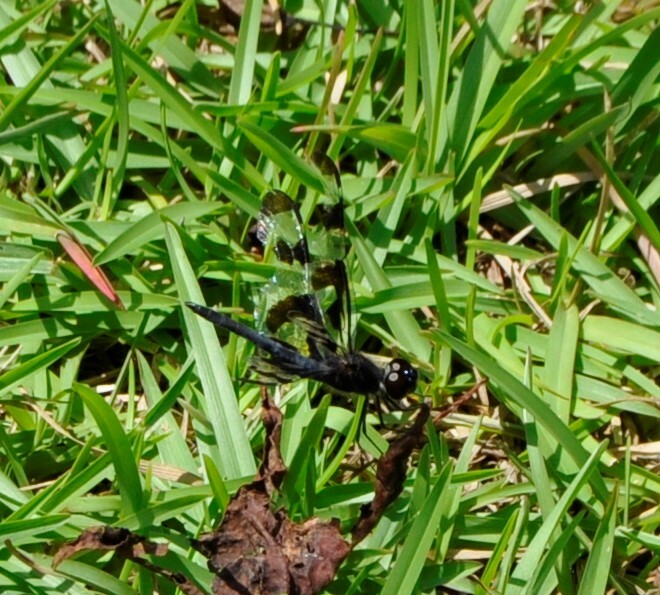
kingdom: Animalia
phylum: Arthropoda
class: Insecta
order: Odonata
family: Libellulidae
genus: Celithemis
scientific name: Celithemis fasciata
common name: Banded pennant
